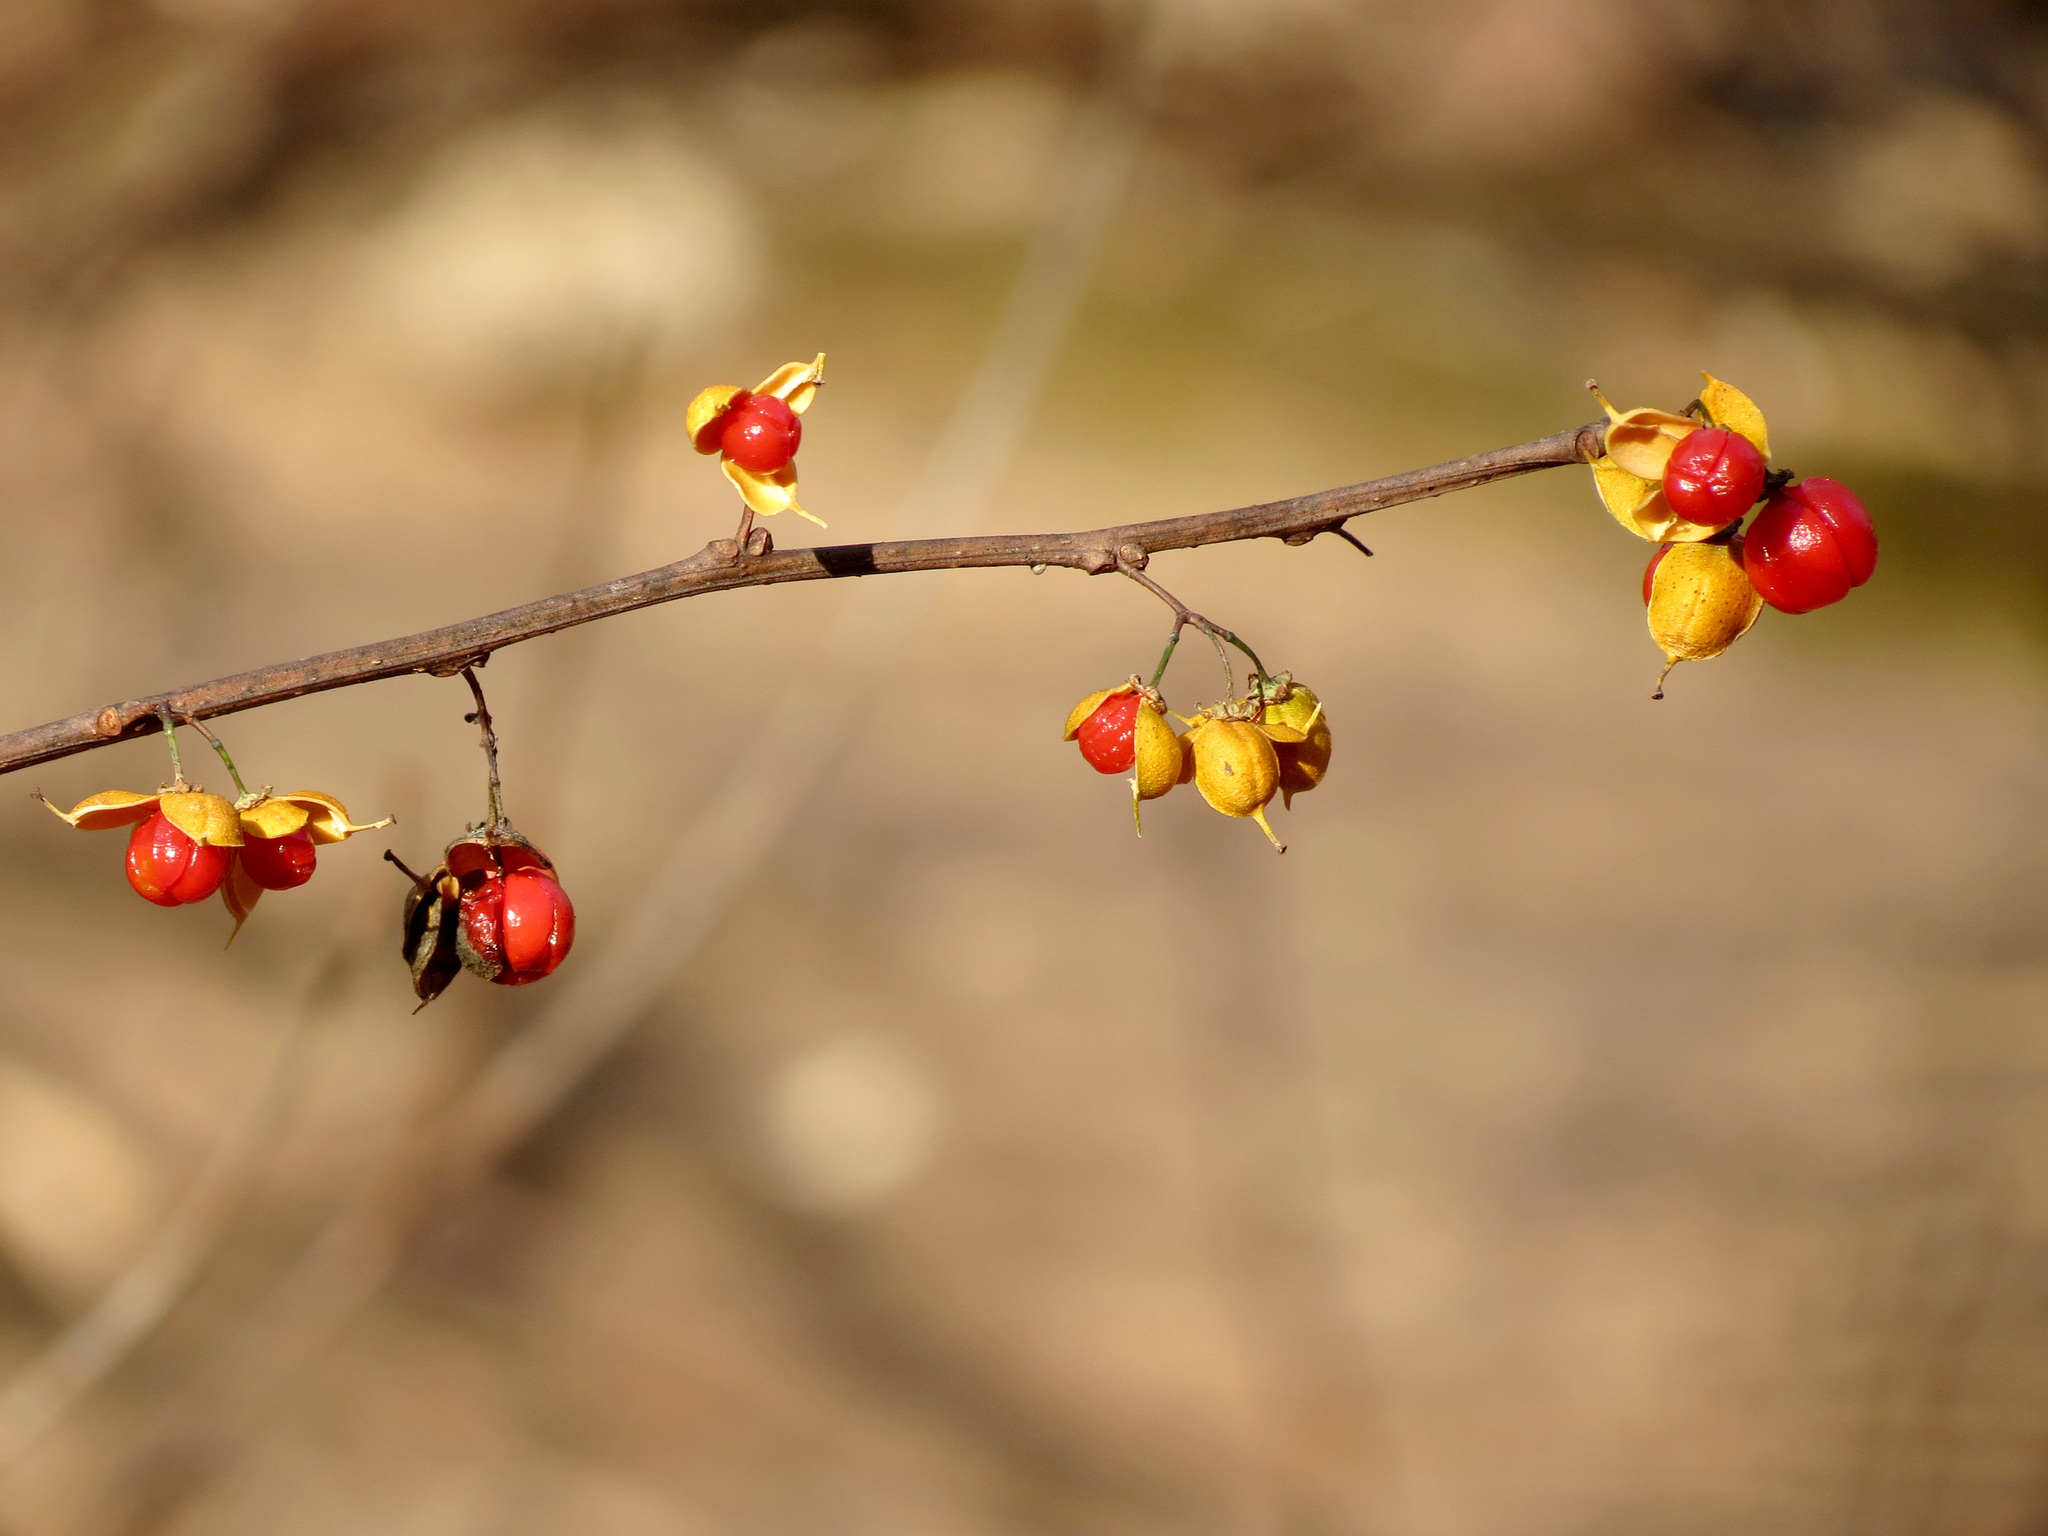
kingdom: Plantae
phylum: Tracheophyta
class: Magnoliopsida
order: Celastrales
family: Celastraceae
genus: Celastrus
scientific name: Celastrus orbiculatus
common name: Oriental bittersweet
